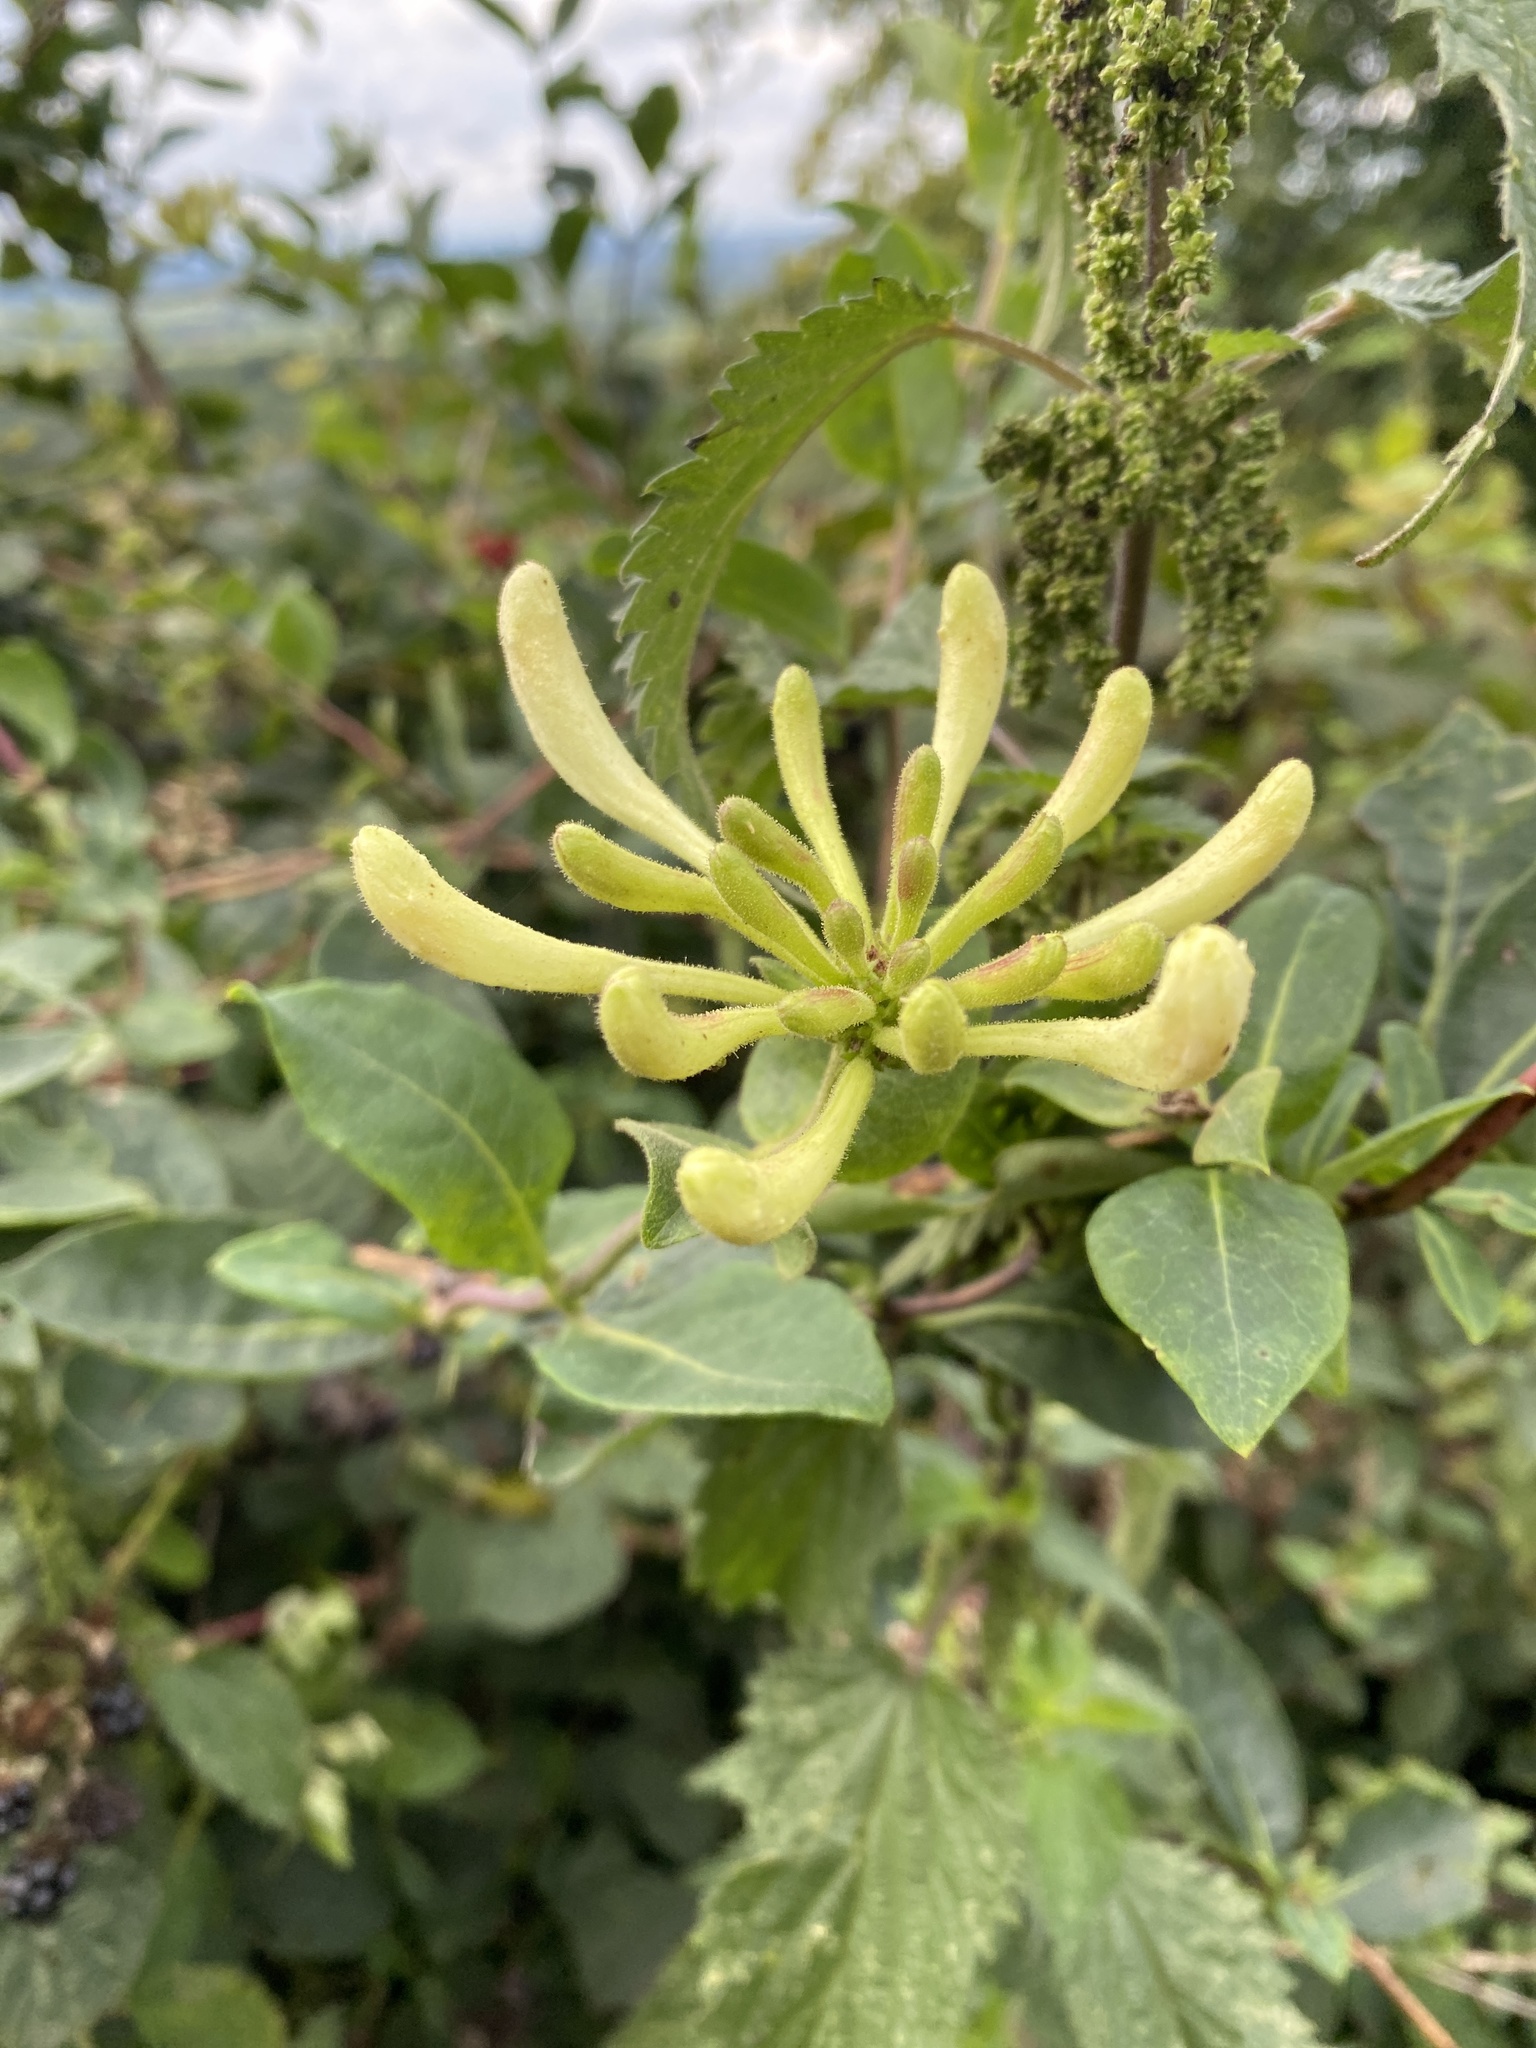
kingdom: Plantae
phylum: Tracheophyta
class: Magnoliopsida
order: Dipsacales
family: Caprifoliaceae
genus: Lonicera
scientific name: Lonicera periclymenum
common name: European honeysuckle
